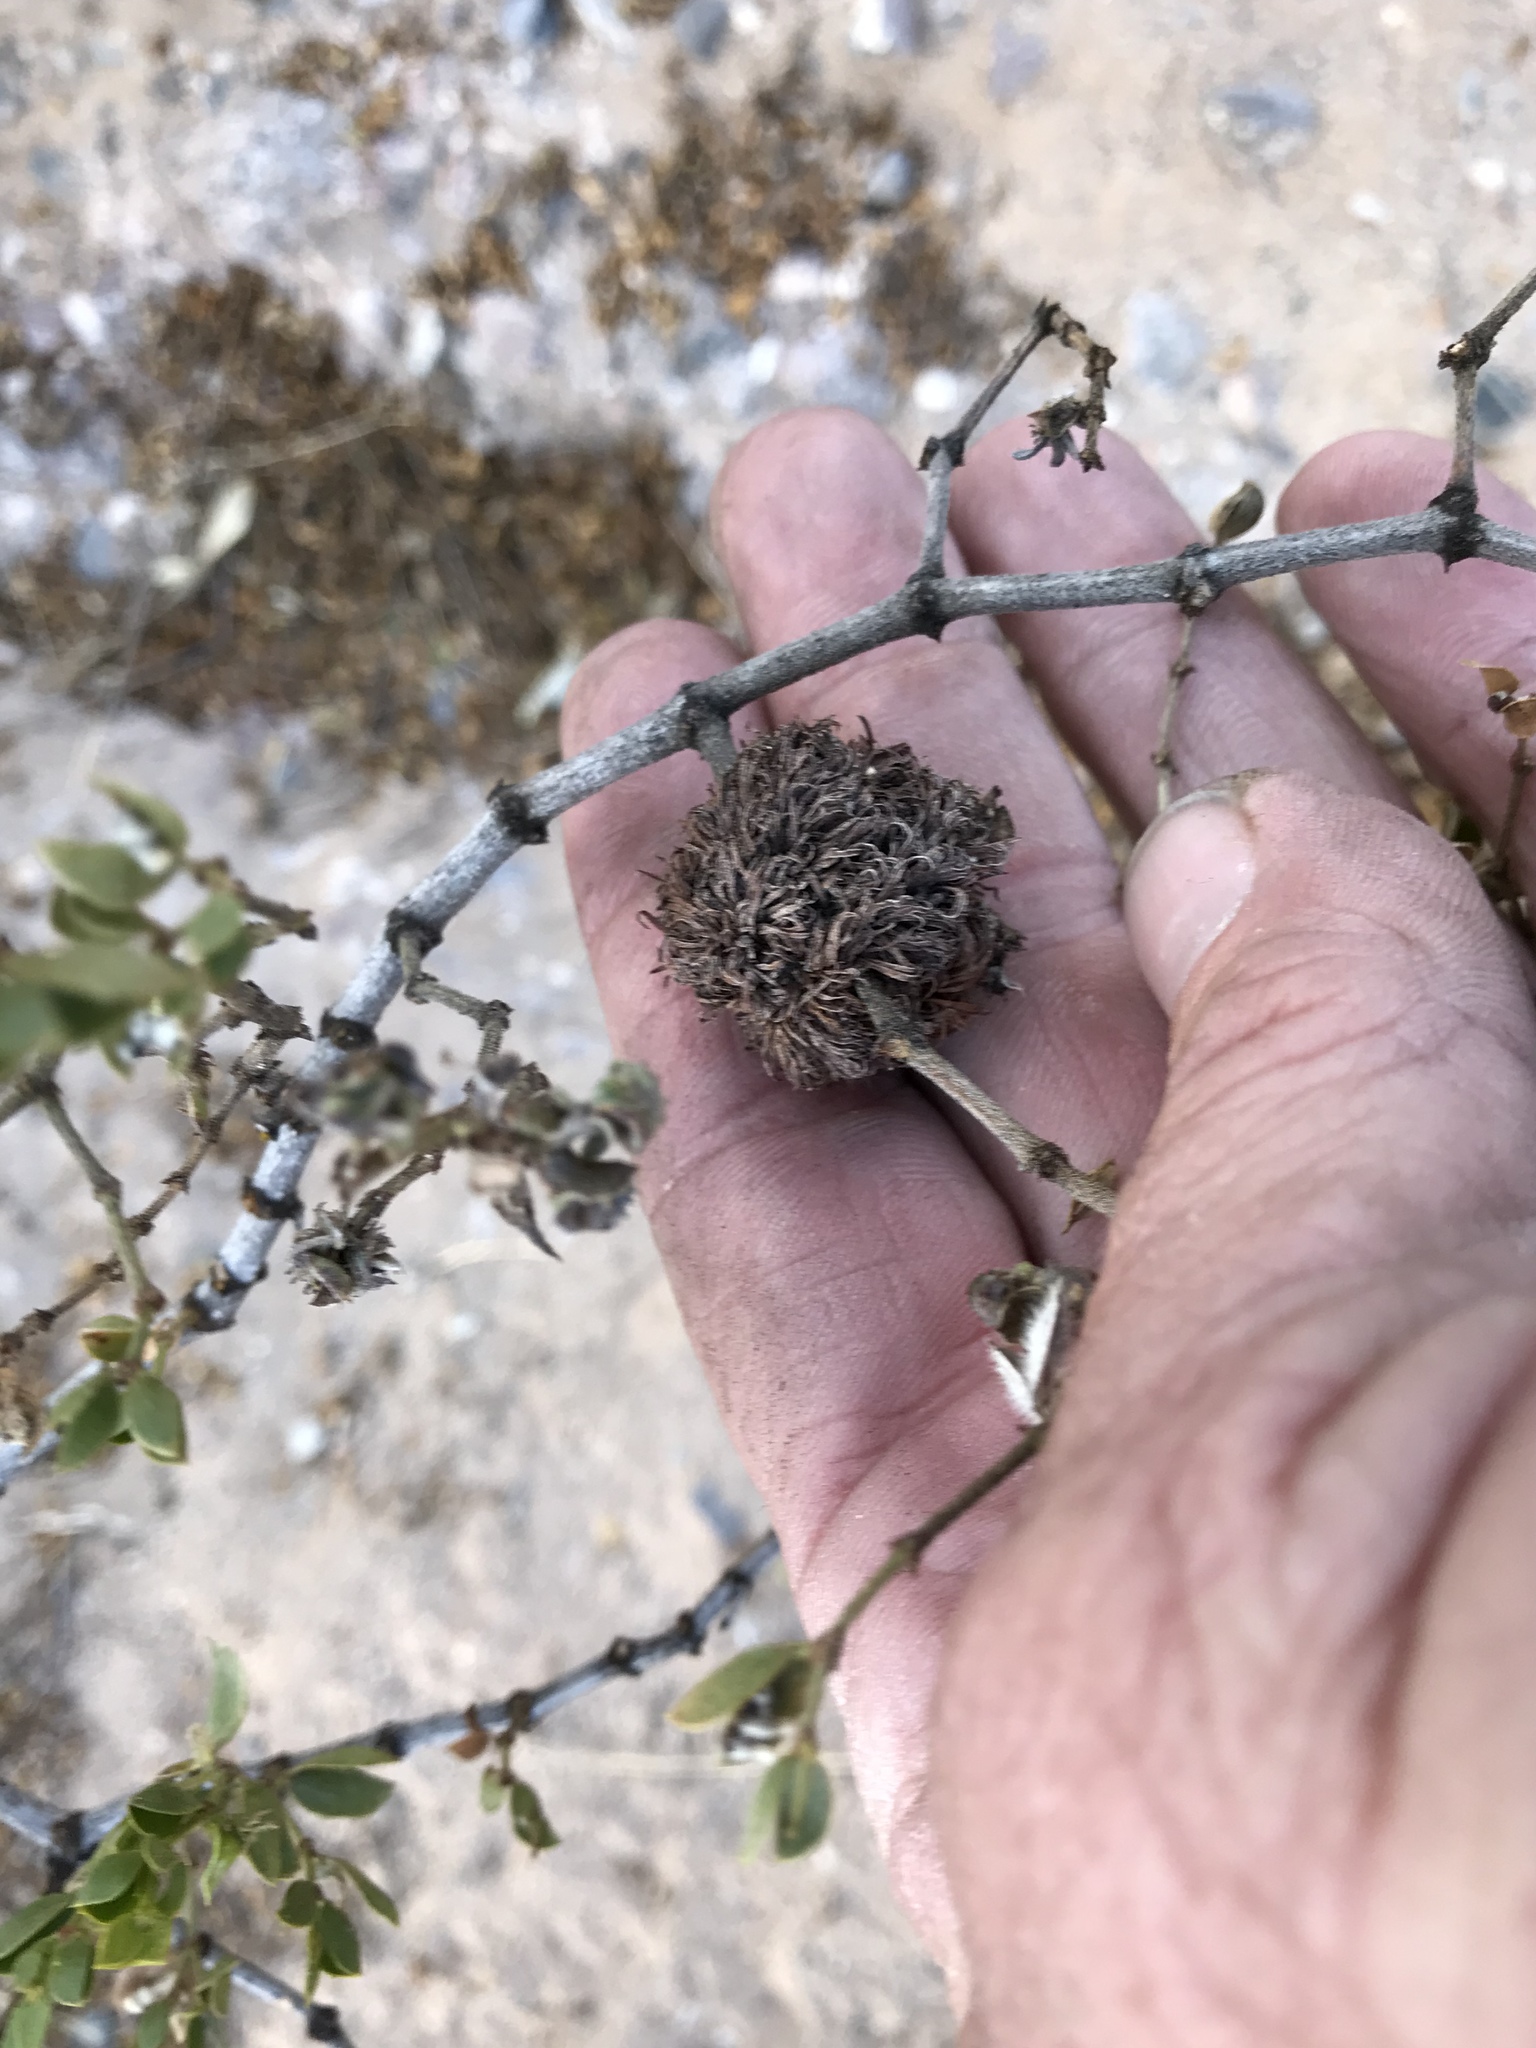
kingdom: Animalia
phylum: Arthropoda
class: Insecta
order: Diptera
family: Cecidomyiidae
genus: Asphondylia
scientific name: Asphondylia auripila
